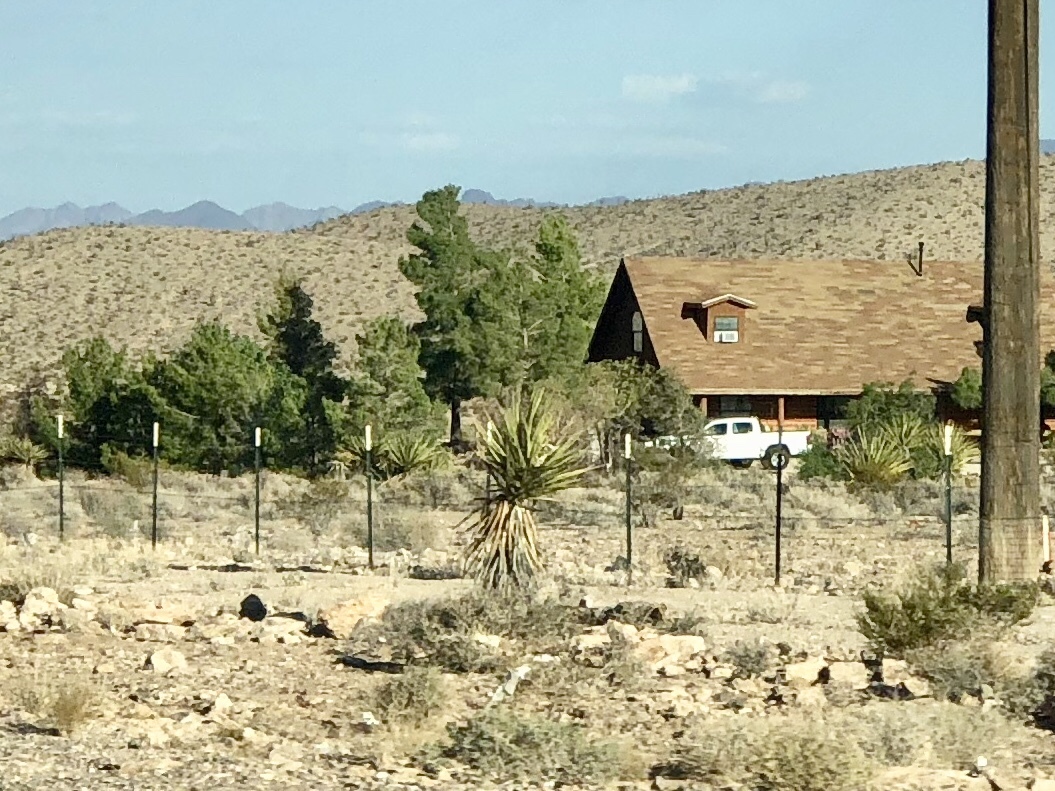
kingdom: Plantae
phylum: Tracheophyta
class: Liliopsida
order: Asparagales
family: Asparagaceae
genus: Yucca
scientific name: Yucca schidigera
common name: Mojave yucca
